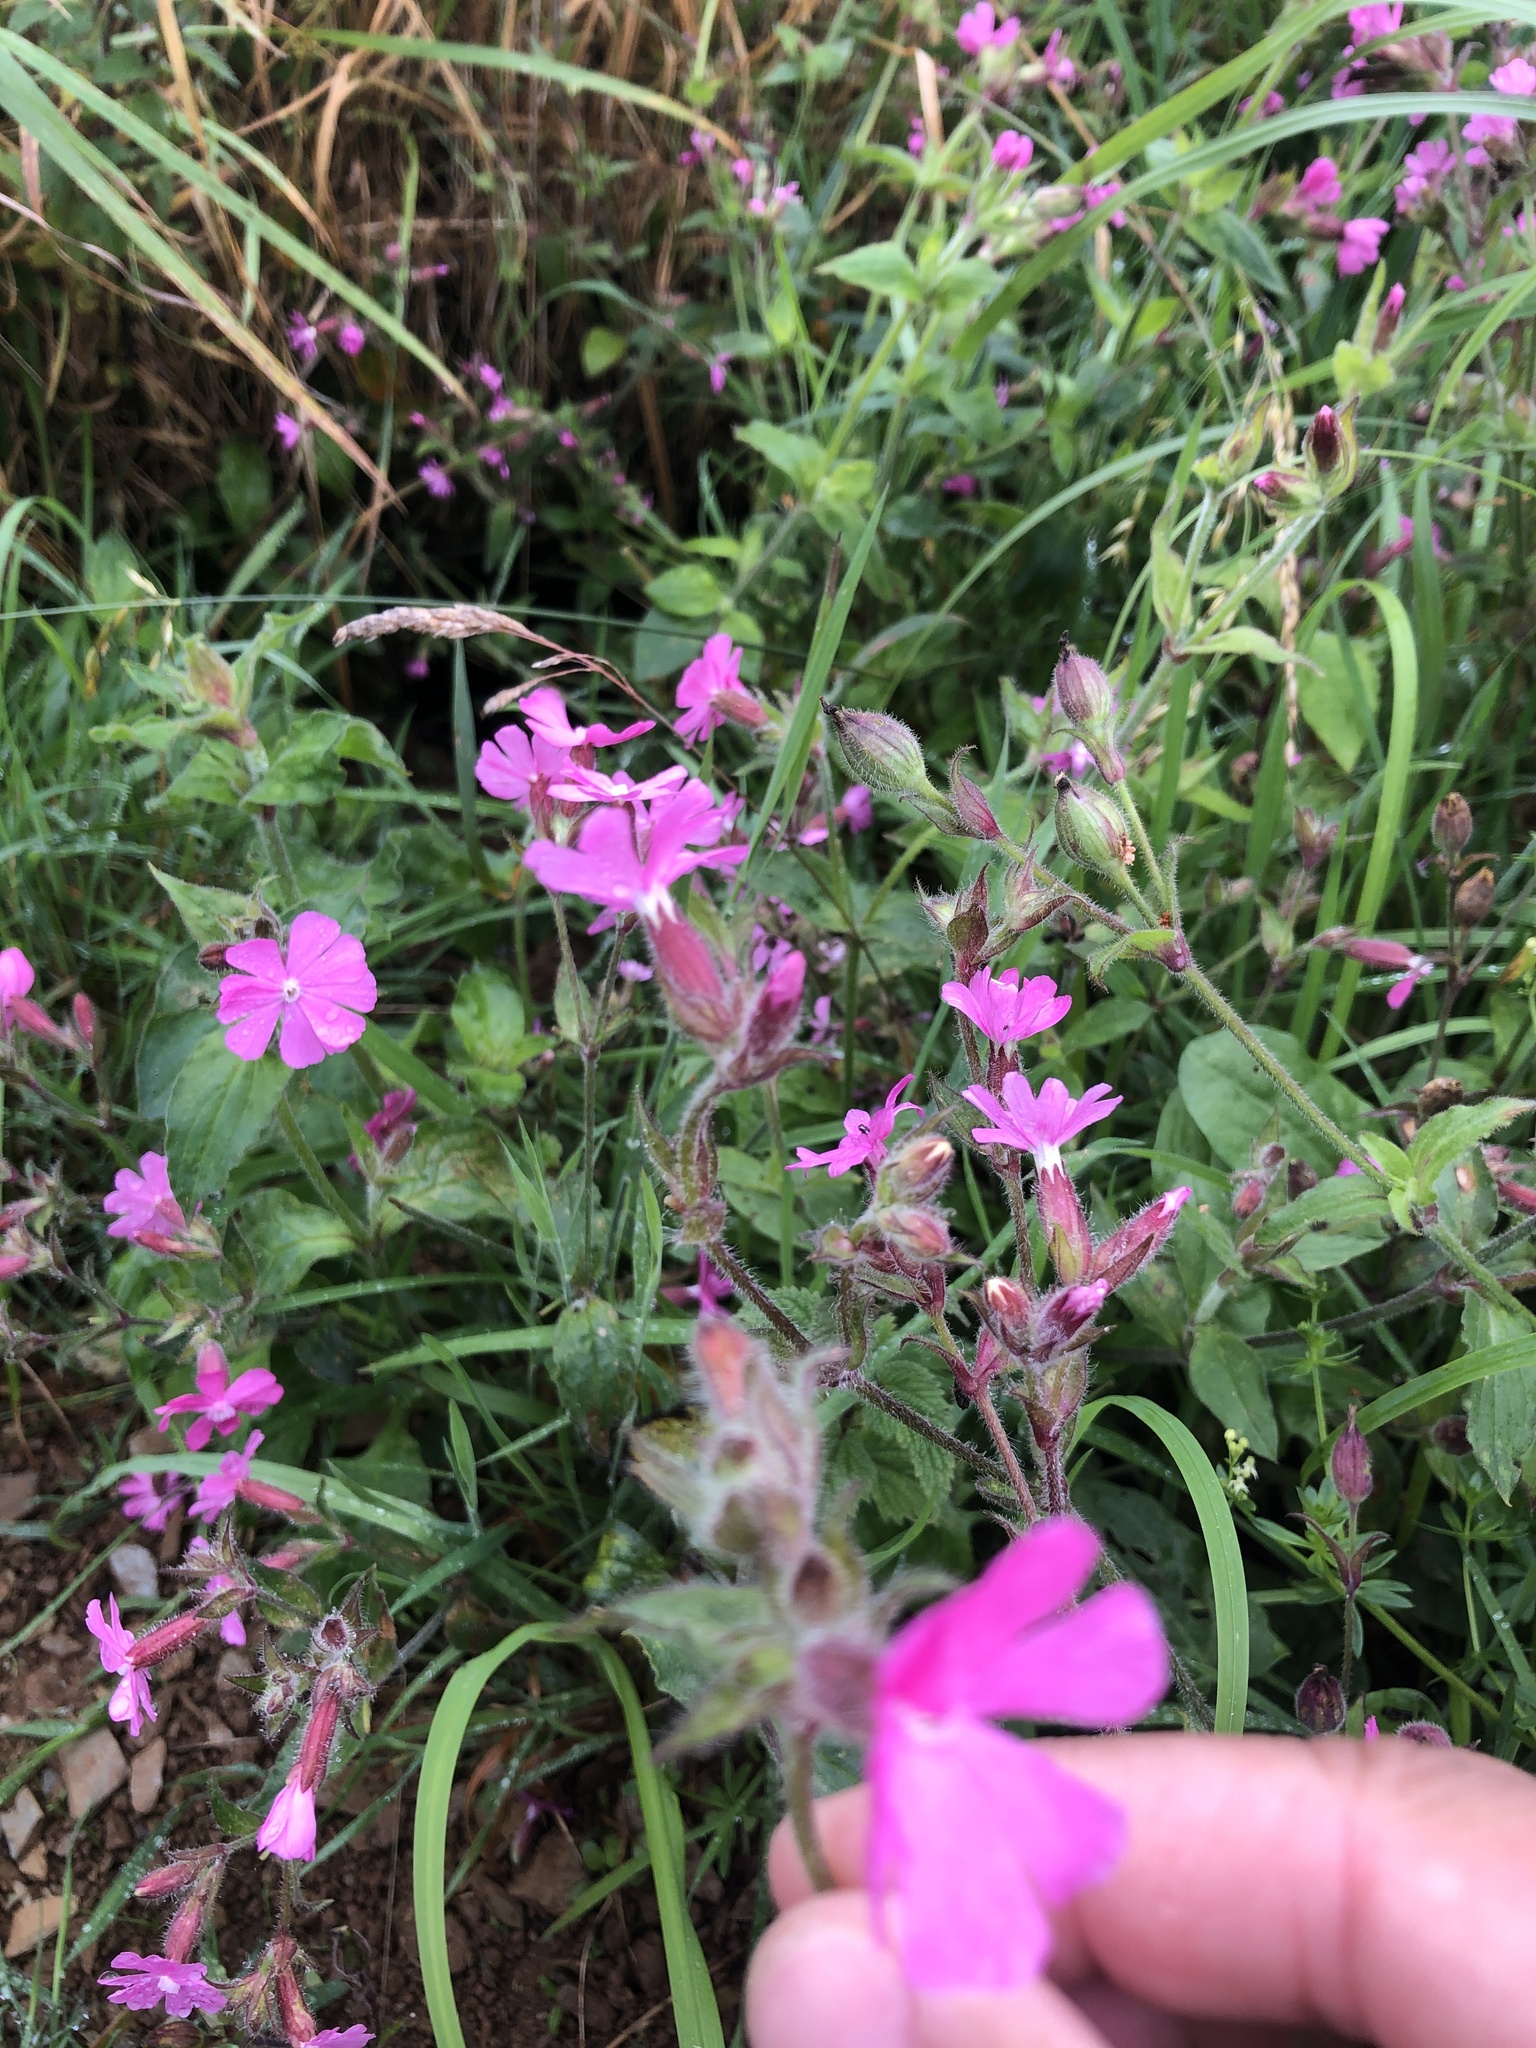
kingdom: Plantae
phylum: Tracheophyta
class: Magnoliopsida
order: Caryophyllales
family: Caryophyllaceae
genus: Silene
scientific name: Silene dioica
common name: Red campion
